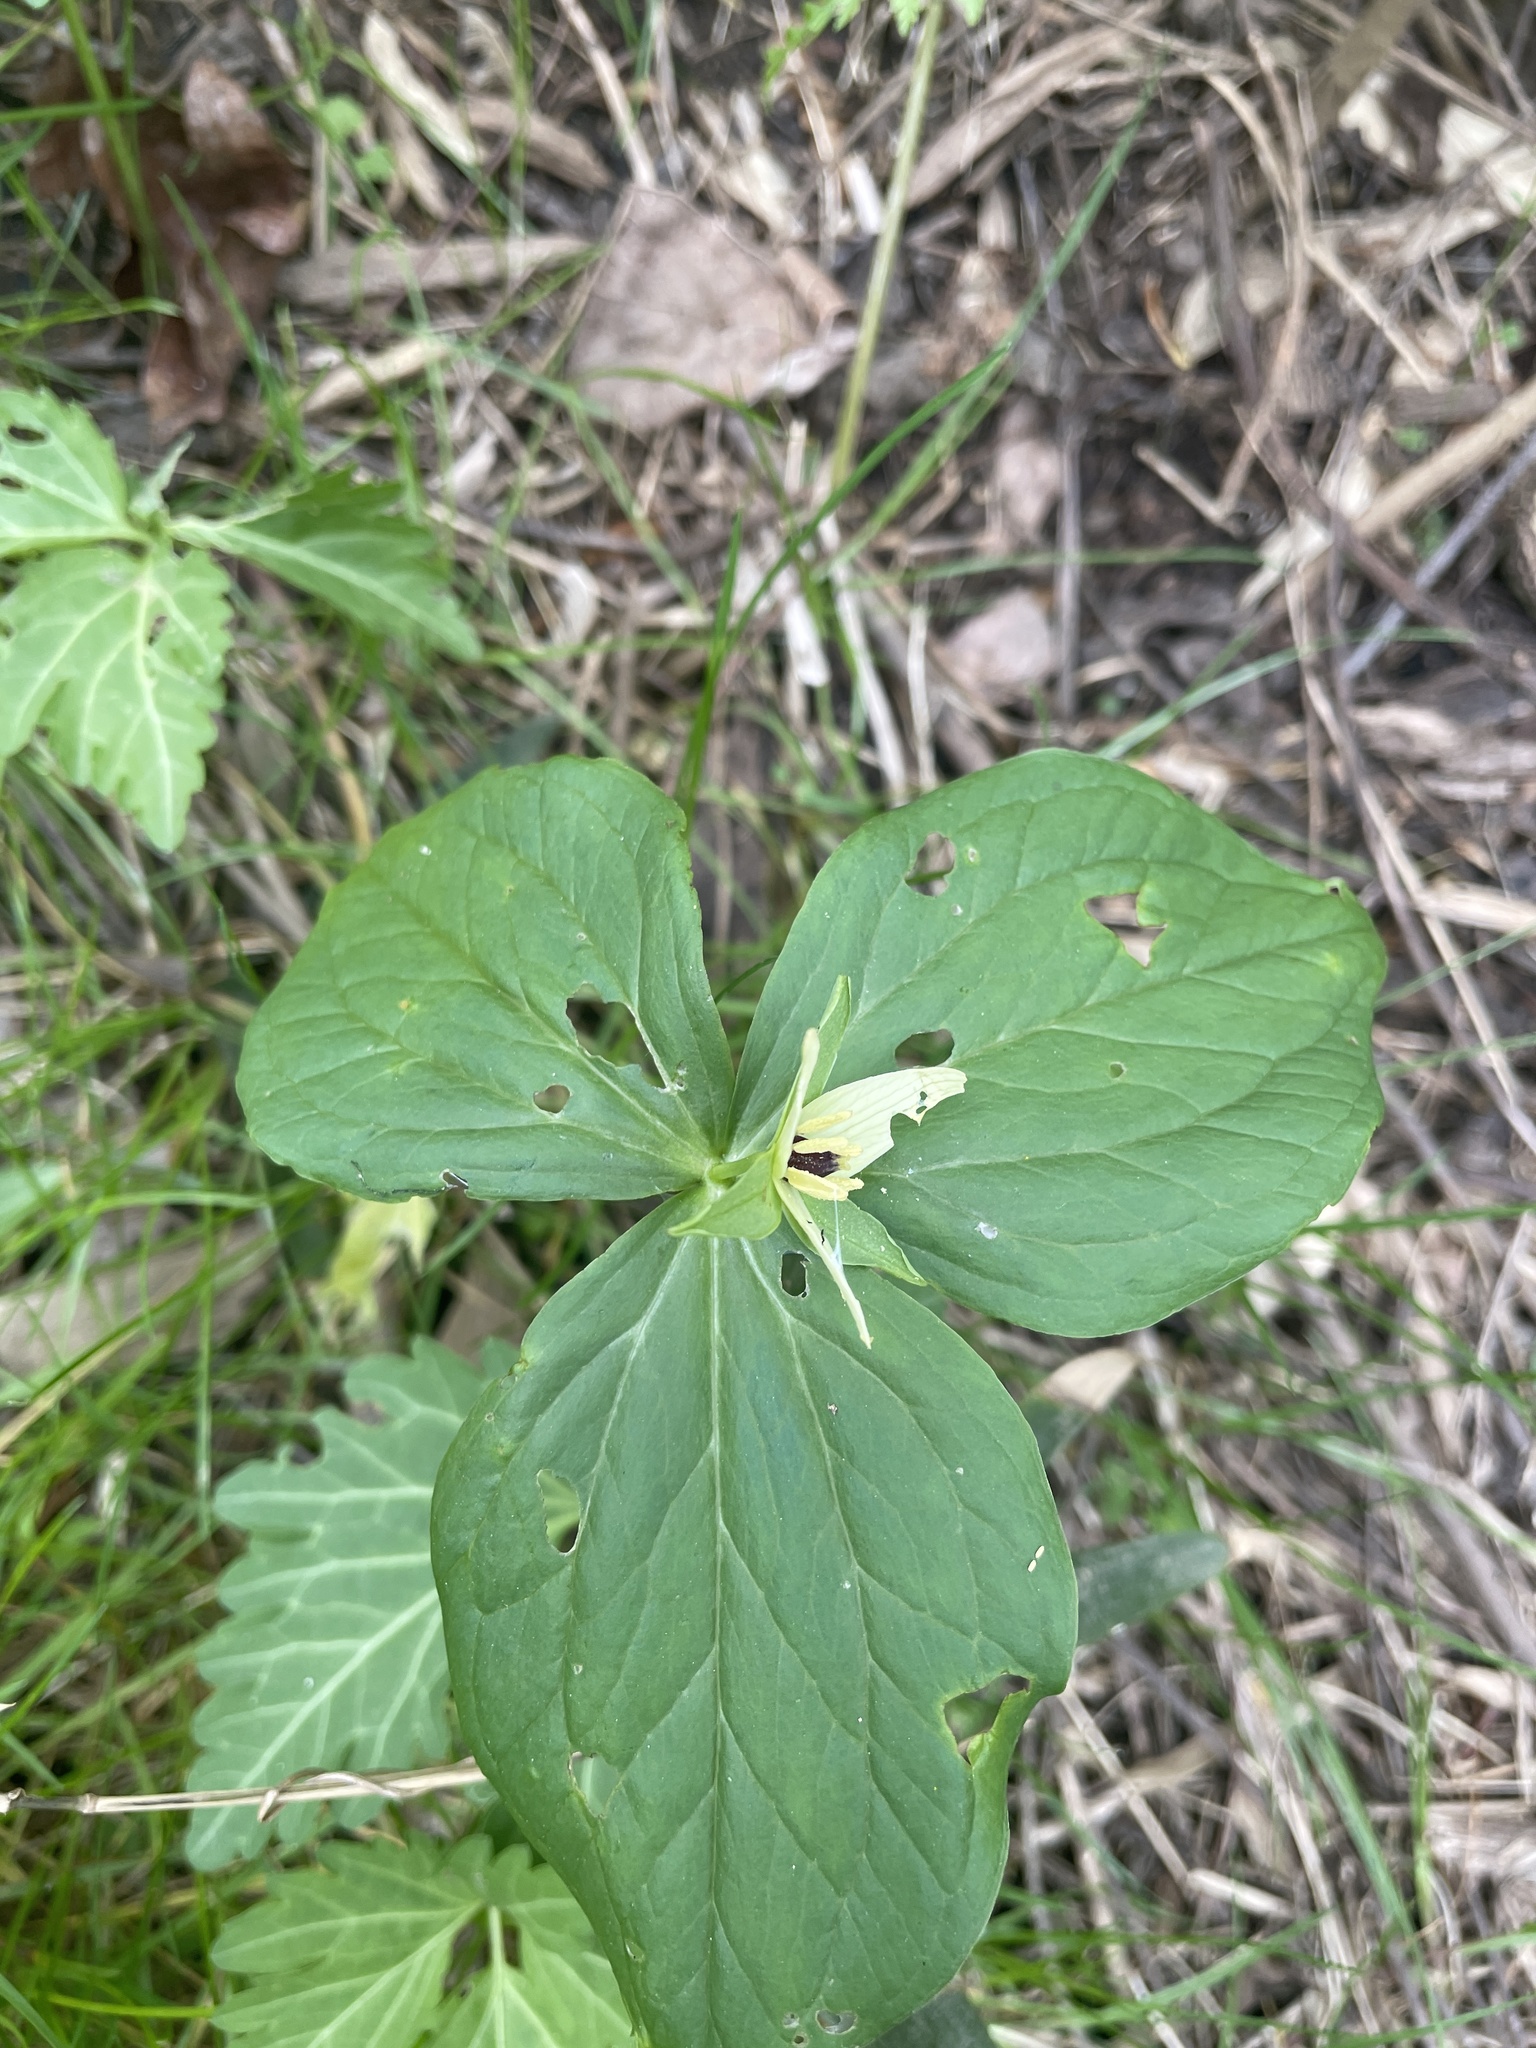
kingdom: Plantae
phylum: Tracheophyta
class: Liliopsida
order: Liliales
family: Melanthiaceae
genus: Trillium
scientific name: Trillium erectum
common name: Purple trillium
